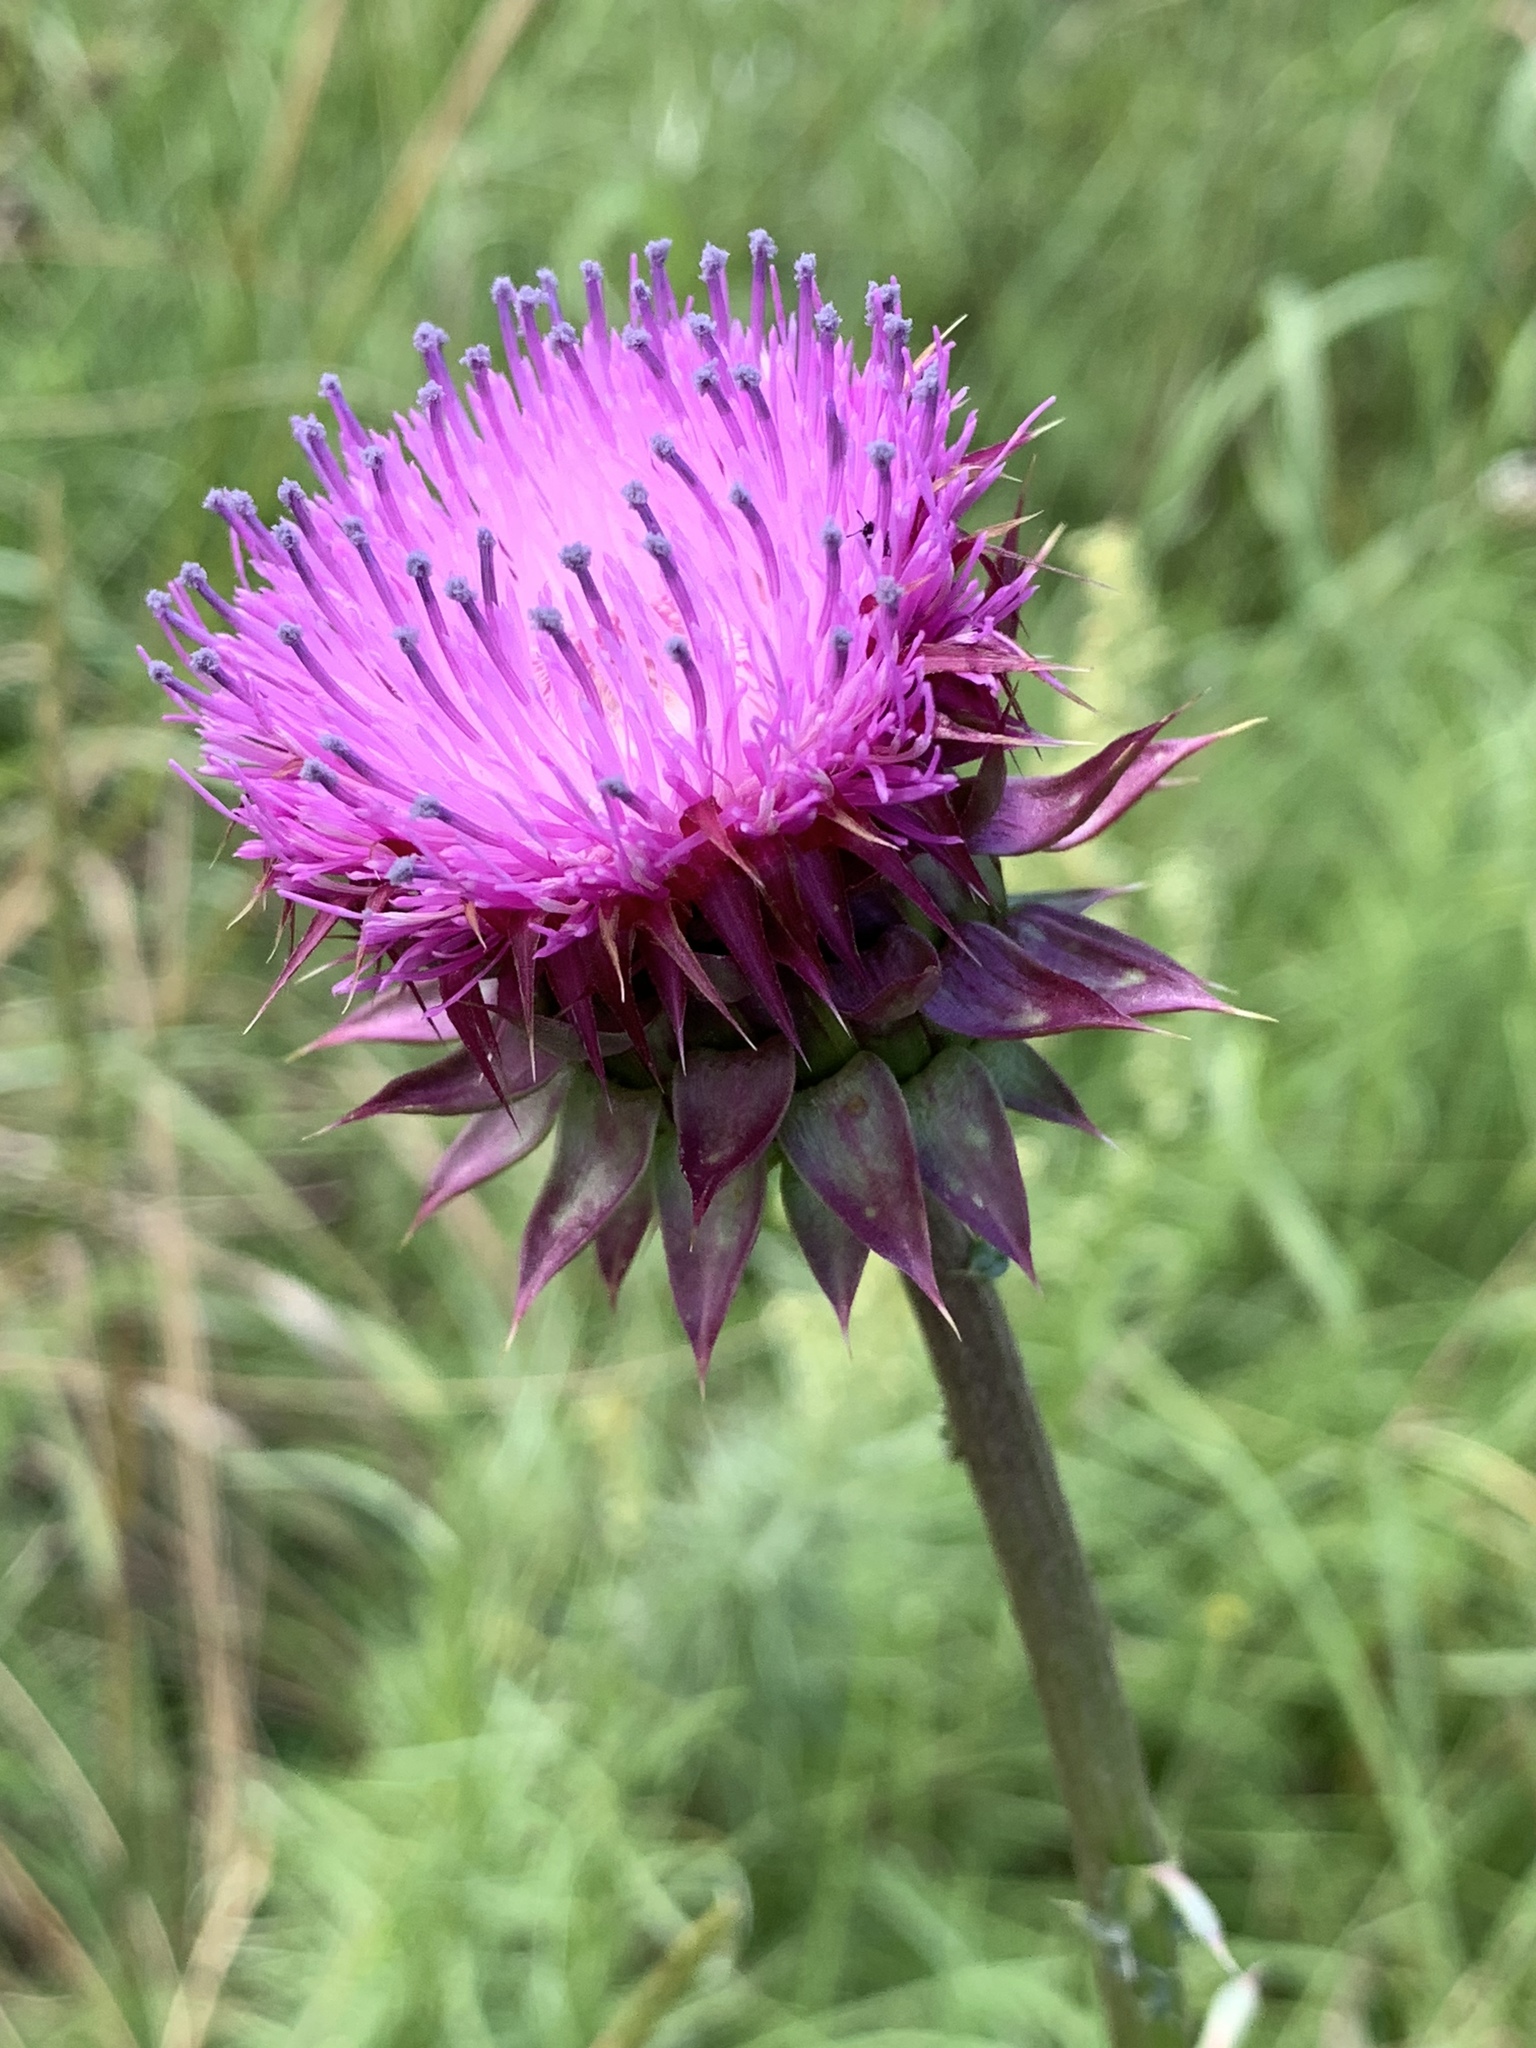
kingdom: Plantae
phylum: Tracheophyta
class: Magnoliopsida
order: Asterales
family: Asteraceae
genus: Carduus
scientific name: Carduus nutans
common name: Musk thistle
